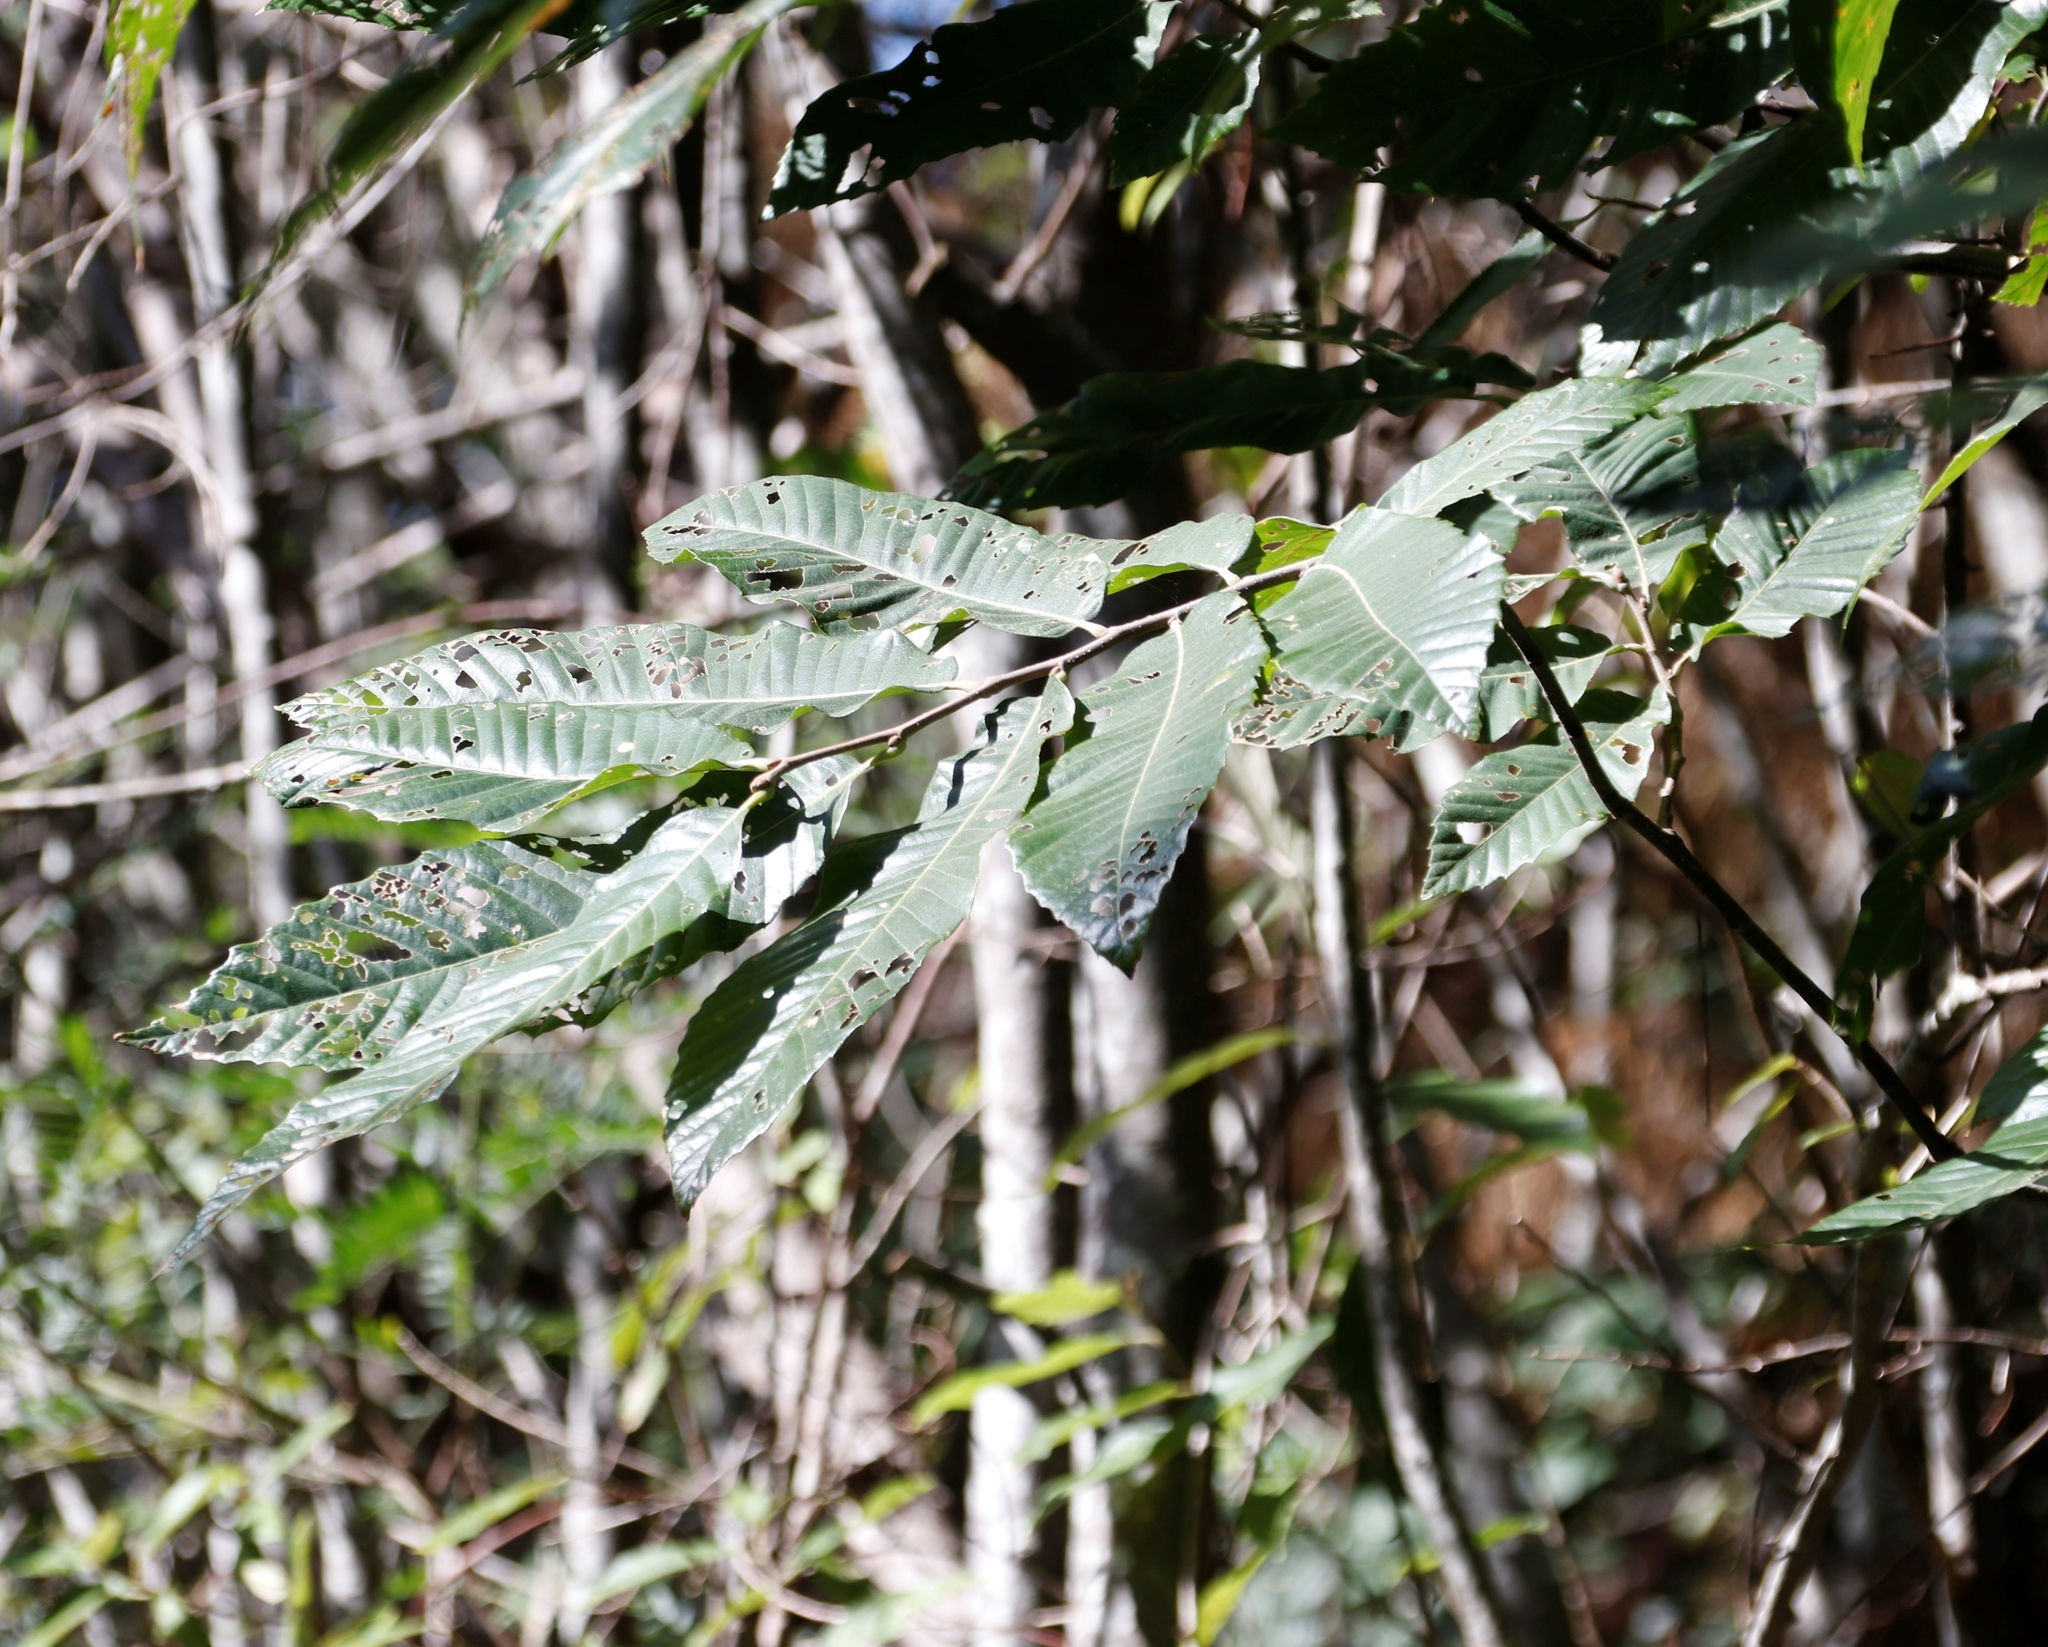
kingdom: Plantae
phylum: Tracheophyta
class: Magnoliopsida
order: Fagales
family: Fagaceae
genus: Castanea
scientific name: Castanea sativa
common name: Sweet chestnut
